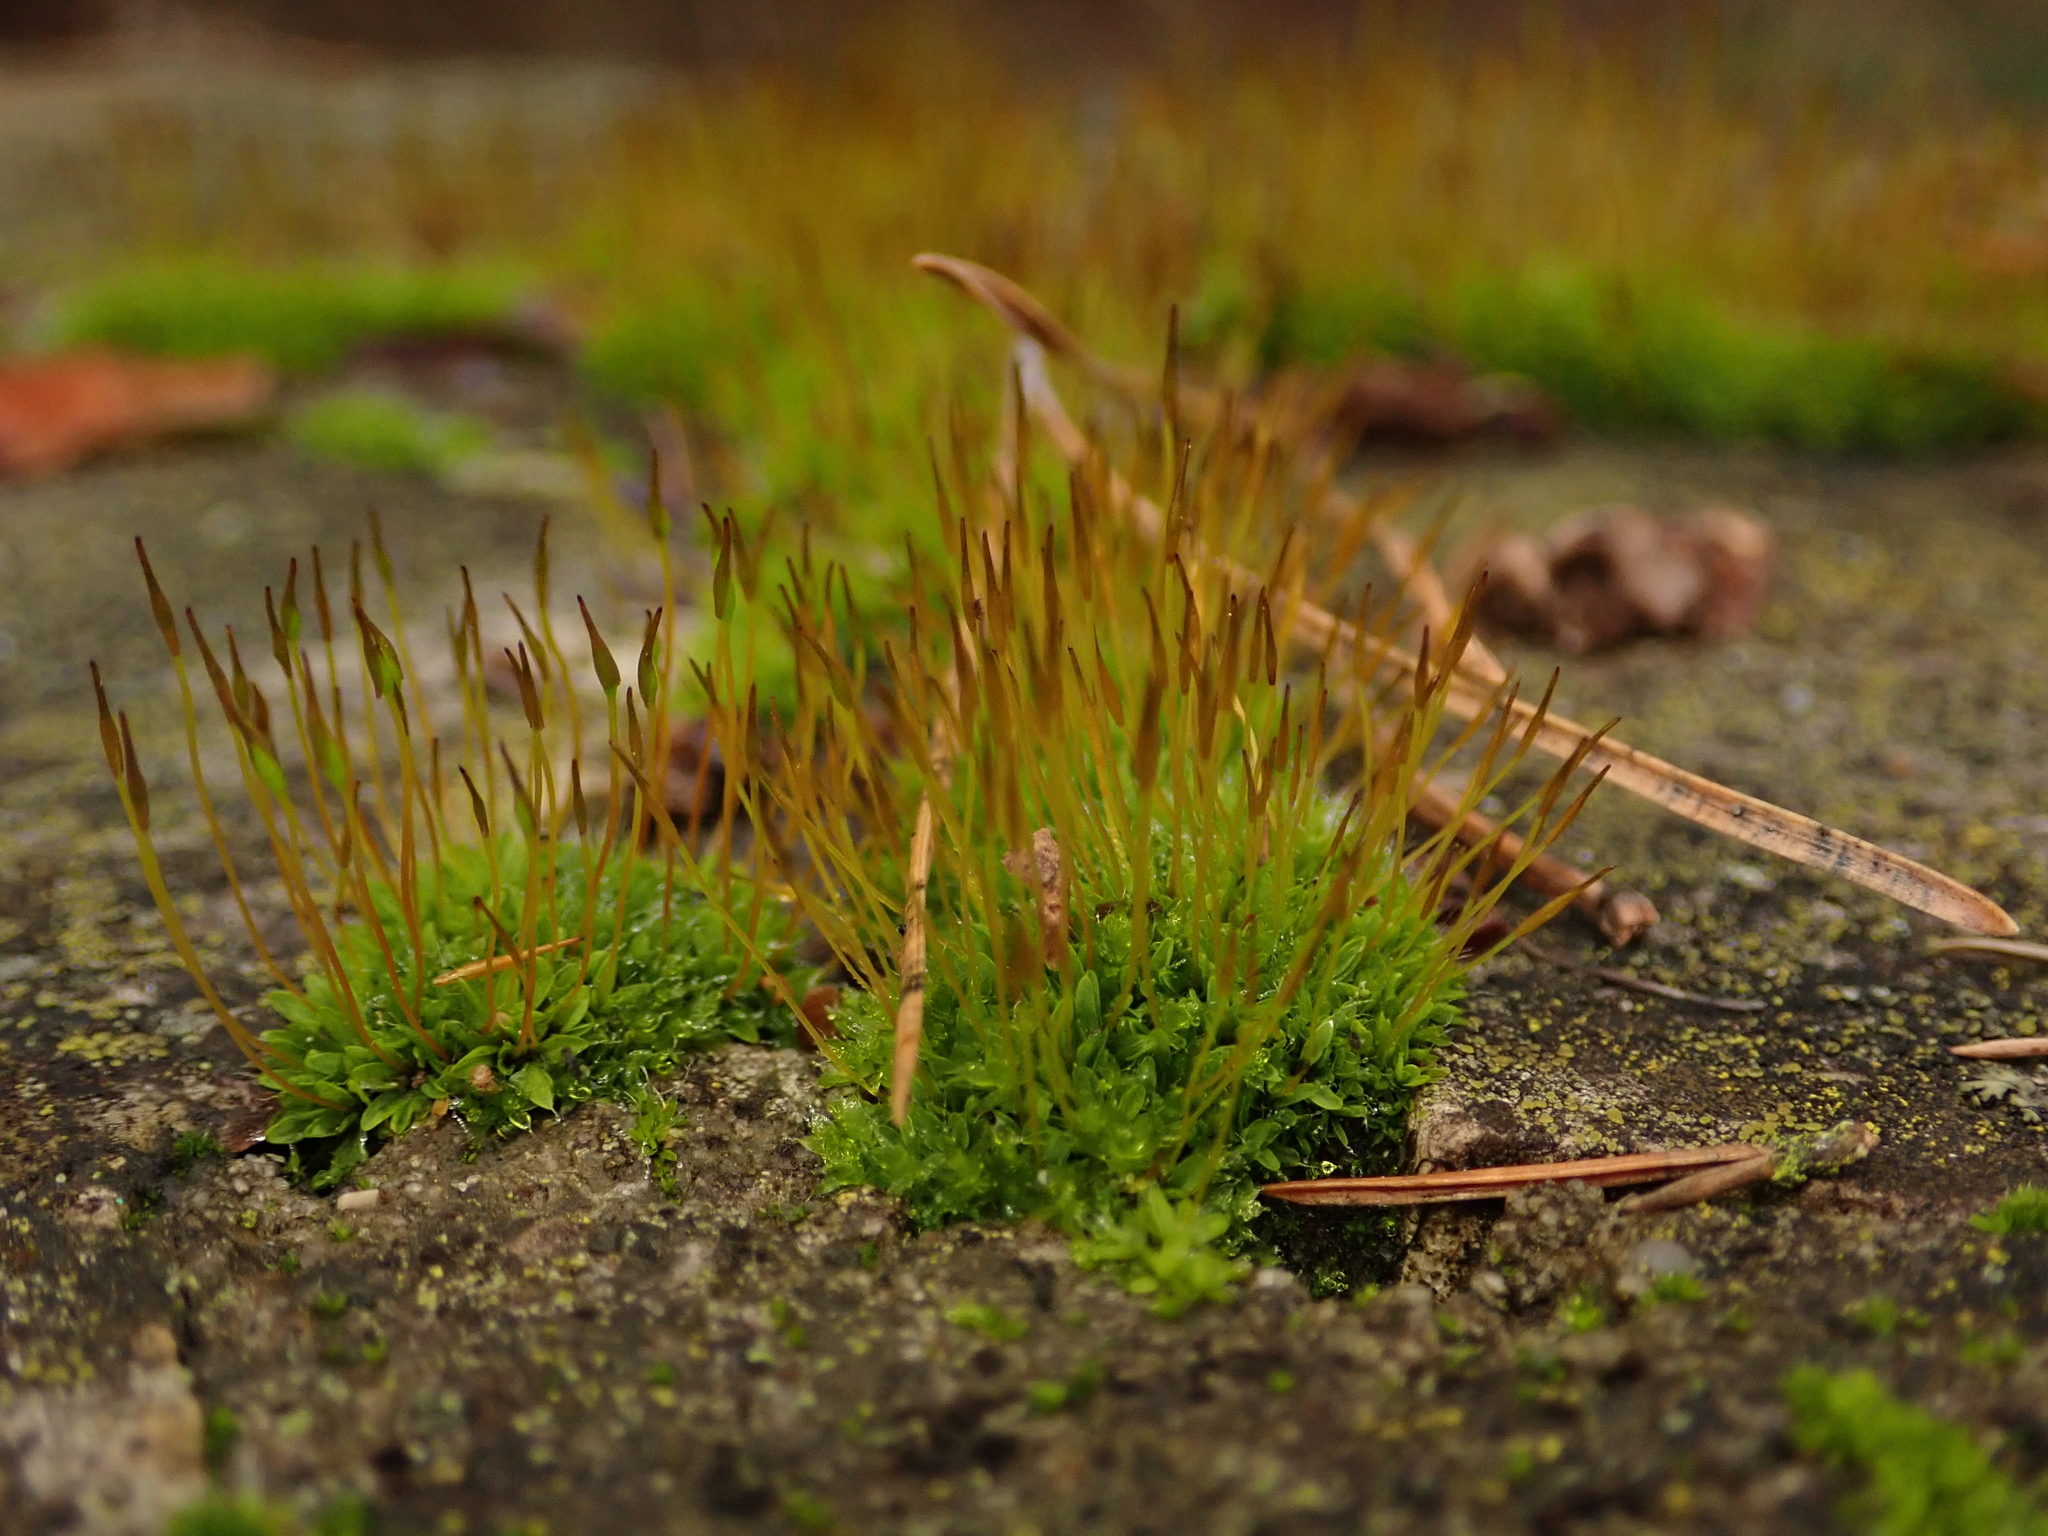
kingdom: Plantae
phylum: Bryophyta
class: Bryopsida
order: Pottiales
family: Pottiaceae
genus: Tortula
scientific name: Tortula muralis
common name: Wall screw-moss
